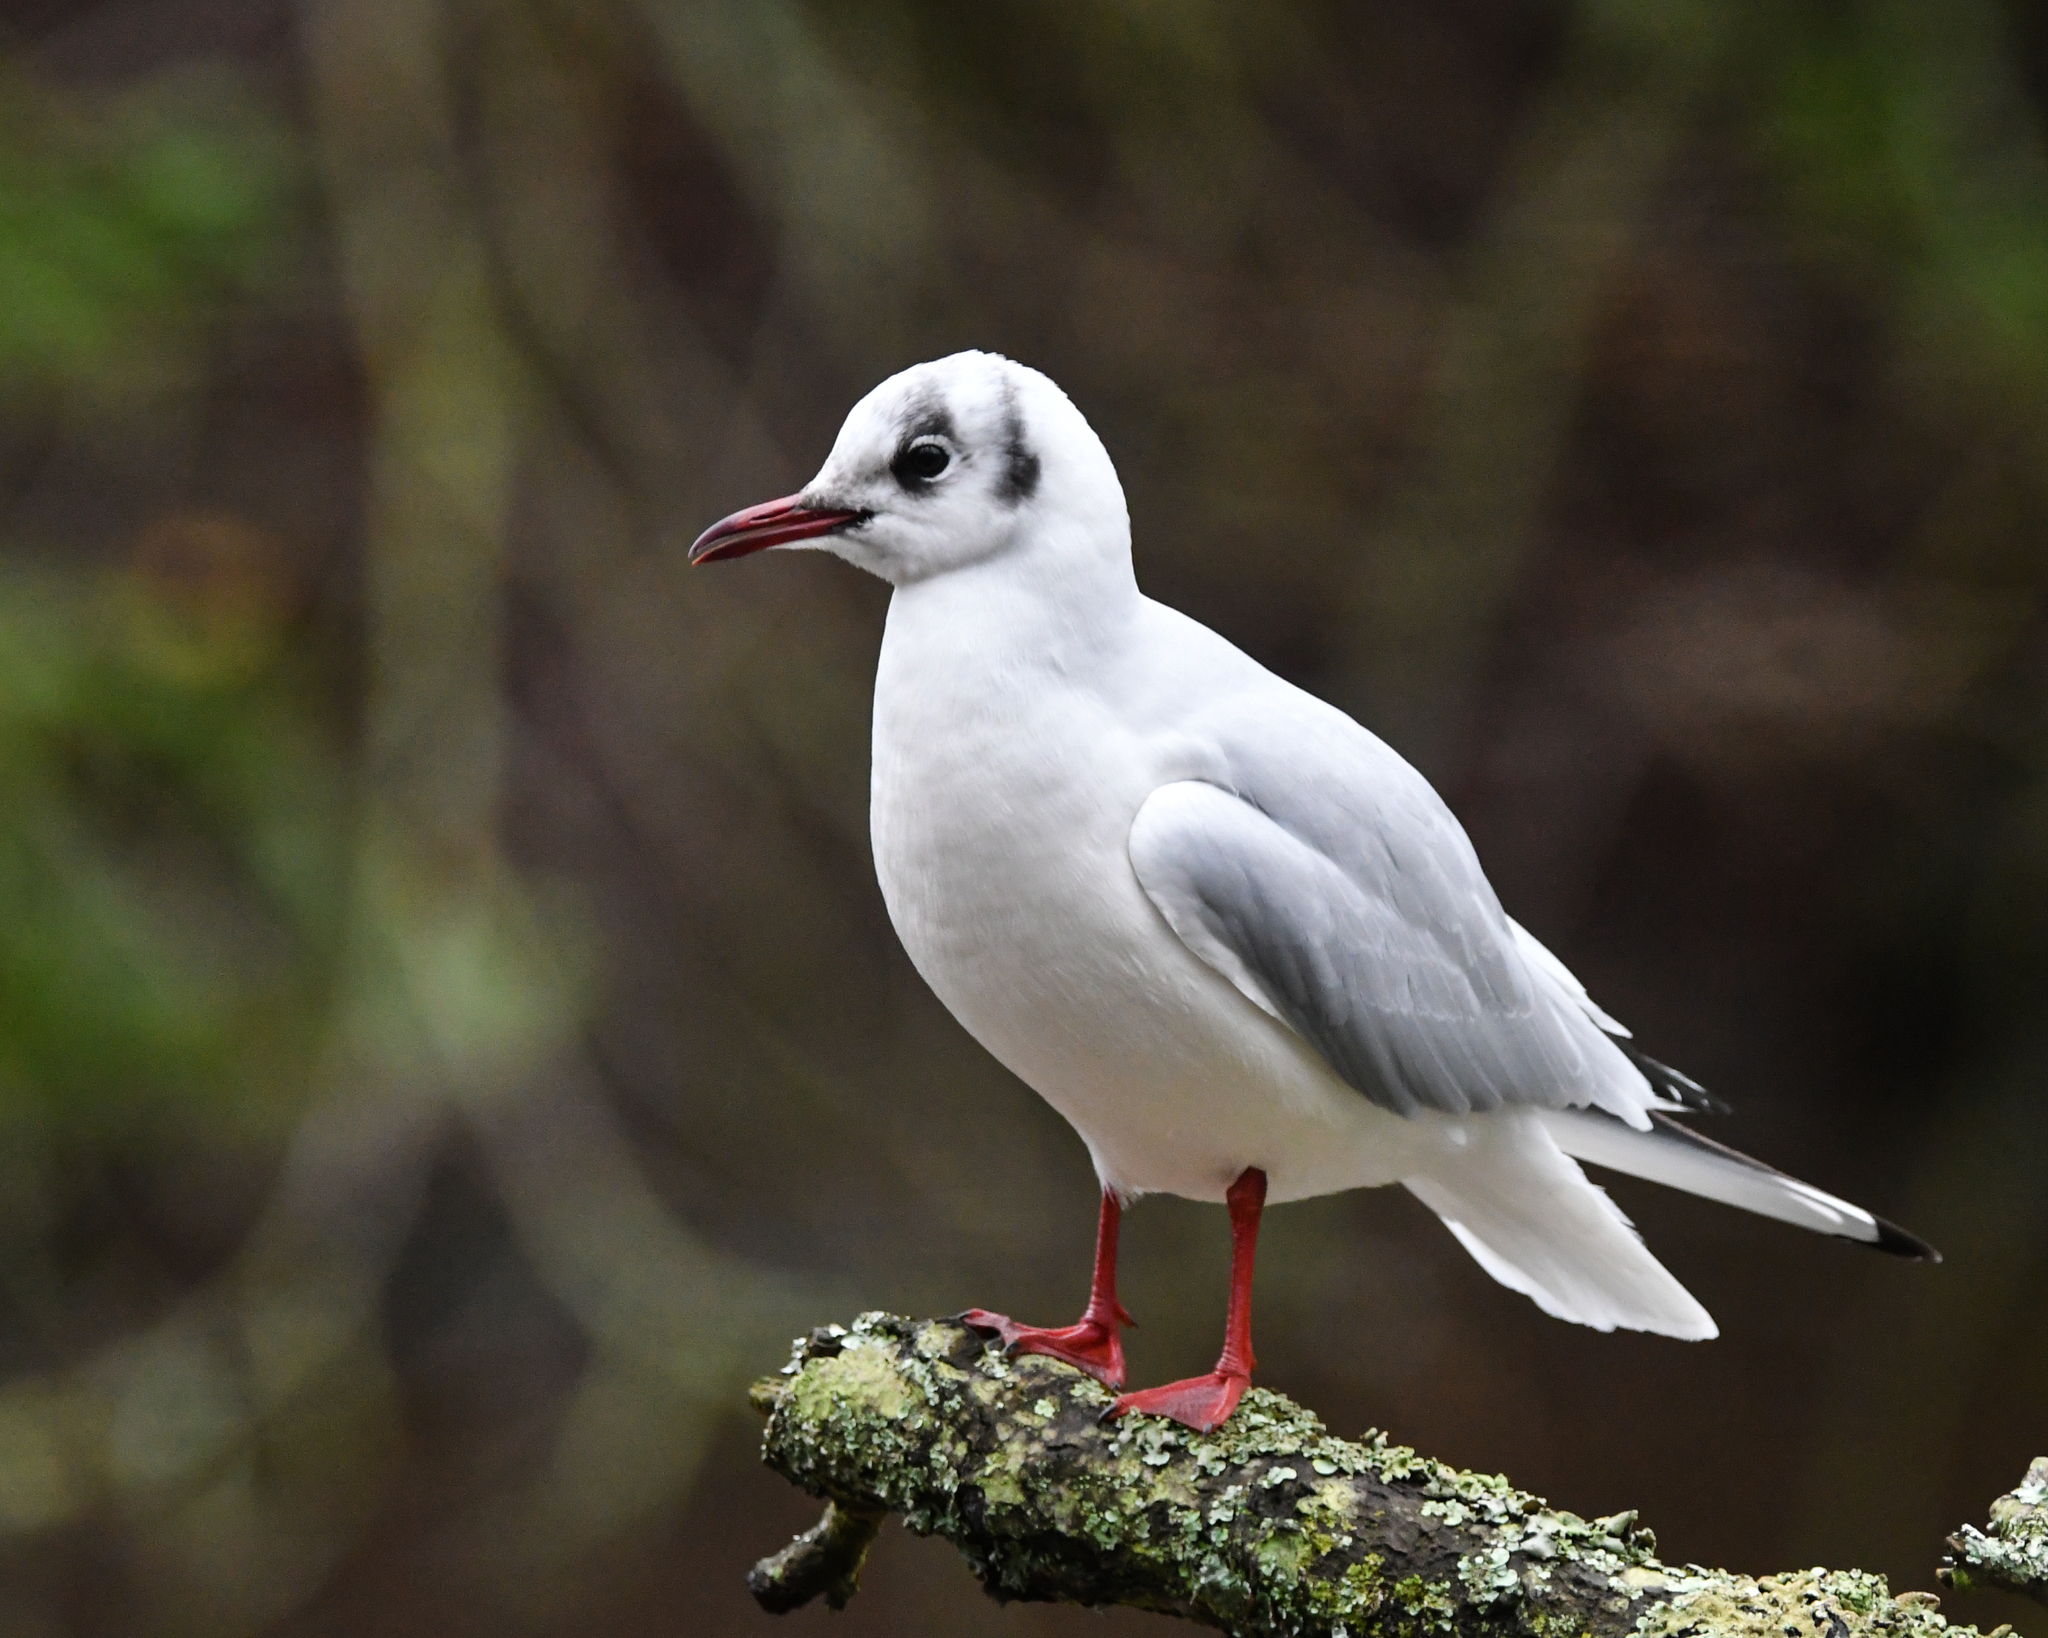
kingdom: Animalia
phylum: Chordata
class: Aves
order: Charadriiformes
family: Laridae
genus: Chroicocephalus
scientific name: Chroicocephalus ridibundus
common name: Black-headed gull
